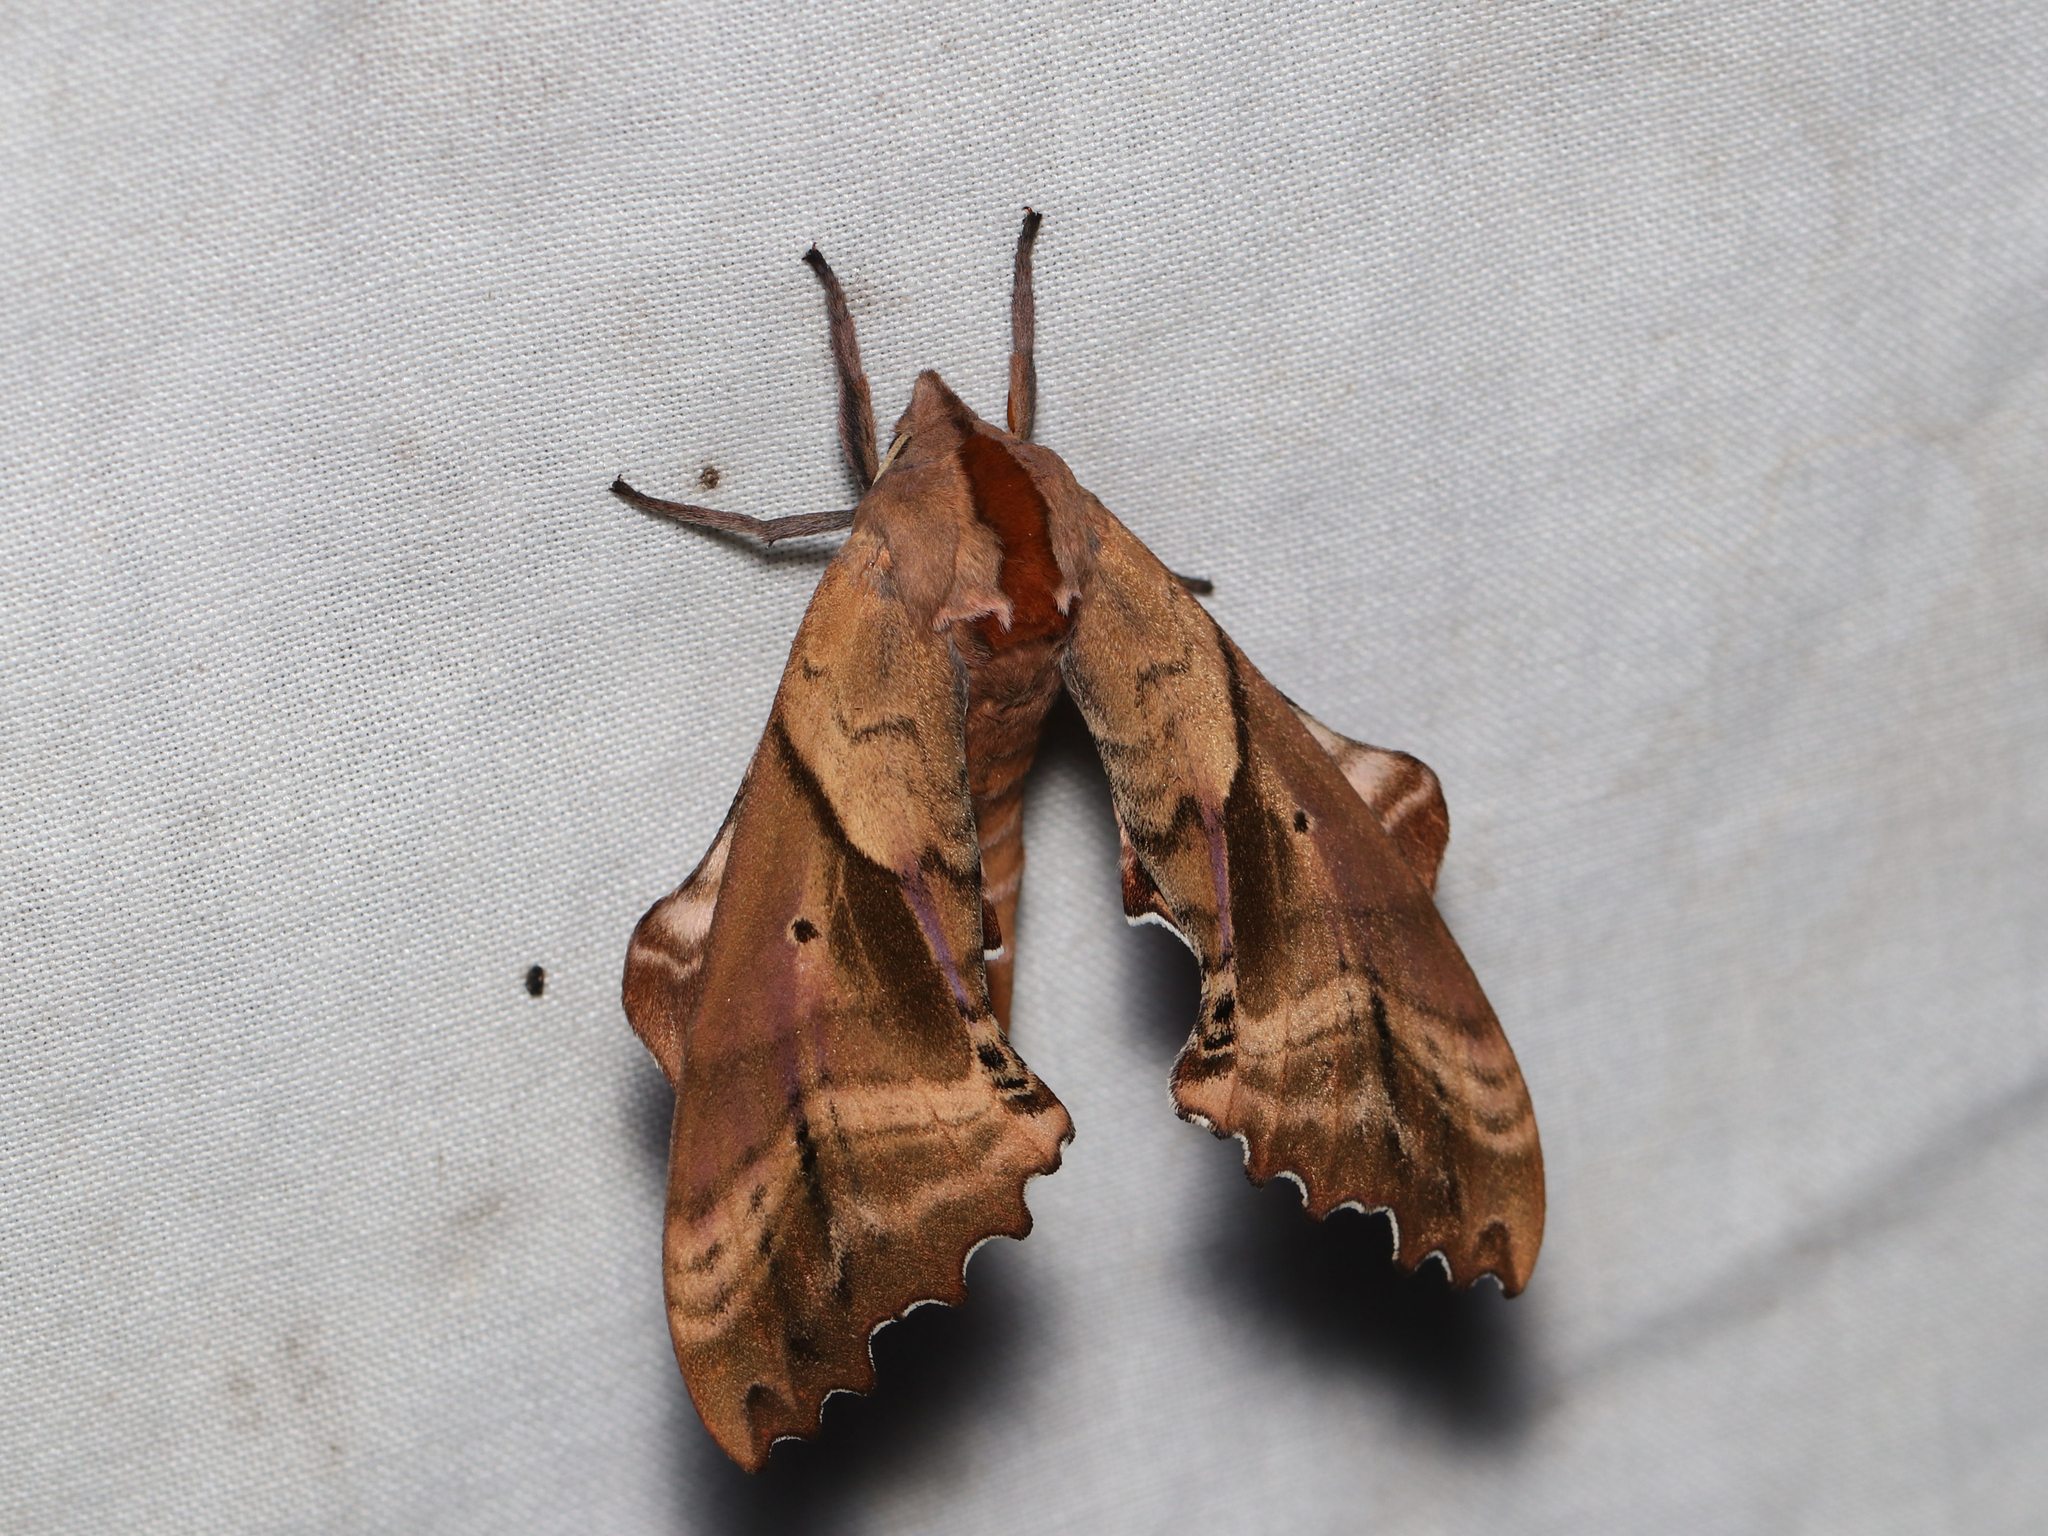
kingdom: Animalia
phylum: Arthropoda
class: Insecta
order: Lepidoptera
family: Sphingidae
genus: Paonias
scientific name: Paonias excaecata
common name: Blind-eyed sphinx
